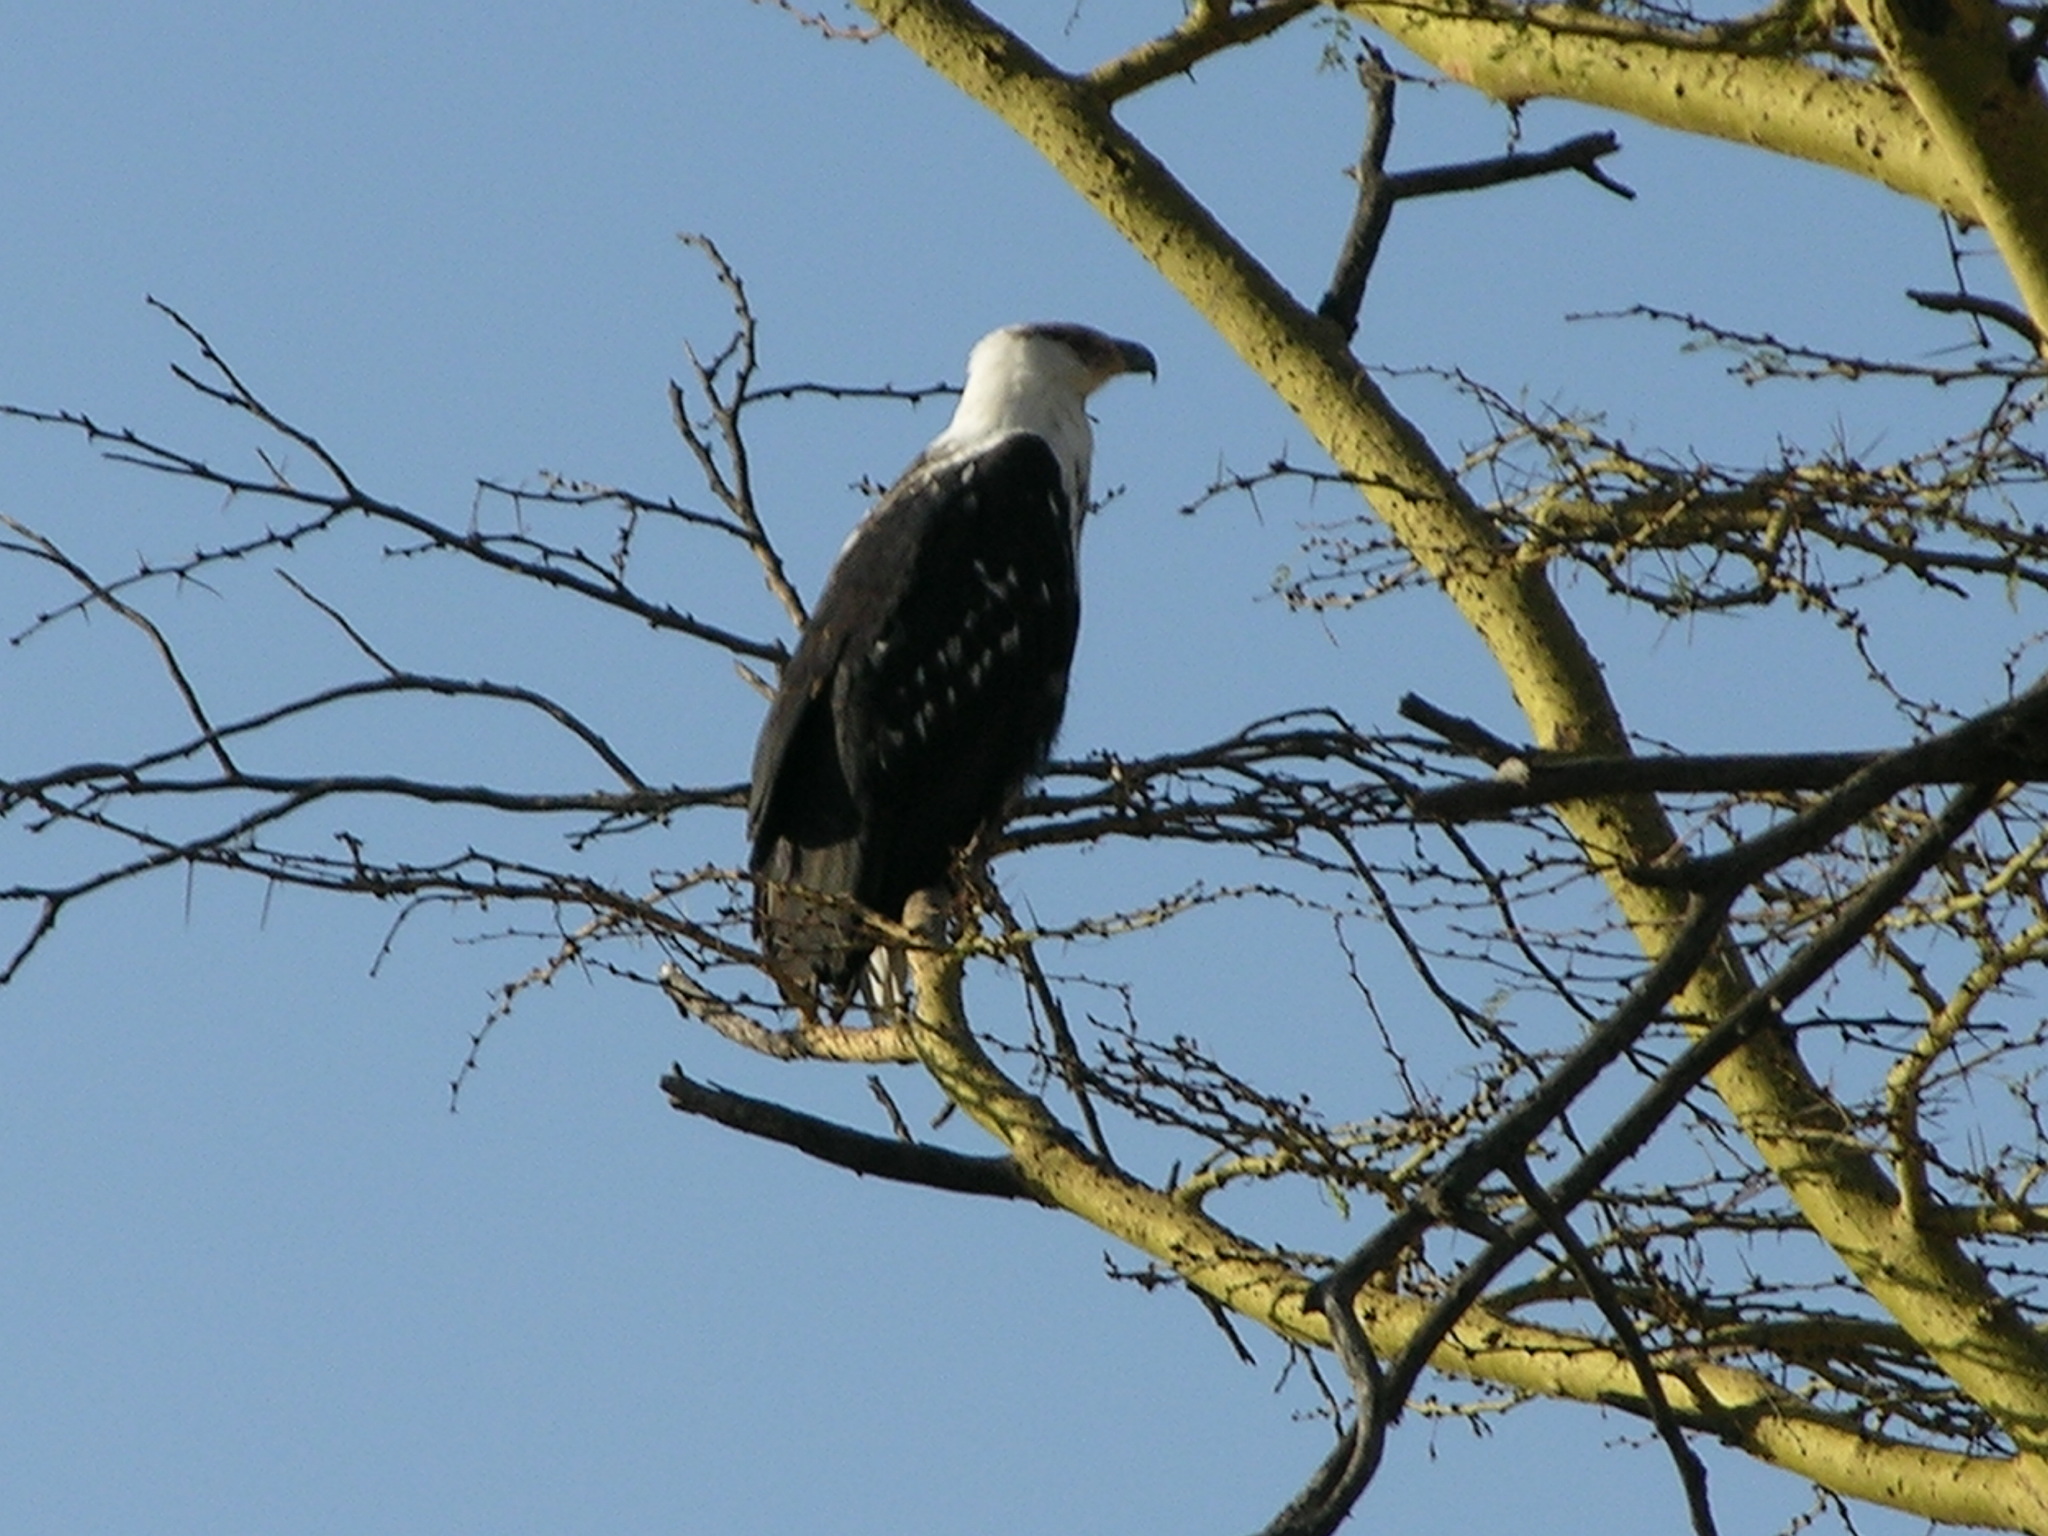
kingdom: Animalia
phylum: Chordata
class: Aves
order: Accipitriformes
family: Accipitridae
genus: Haliaeetus
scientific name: Haliaeetus vocifer
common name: African fish eagle
